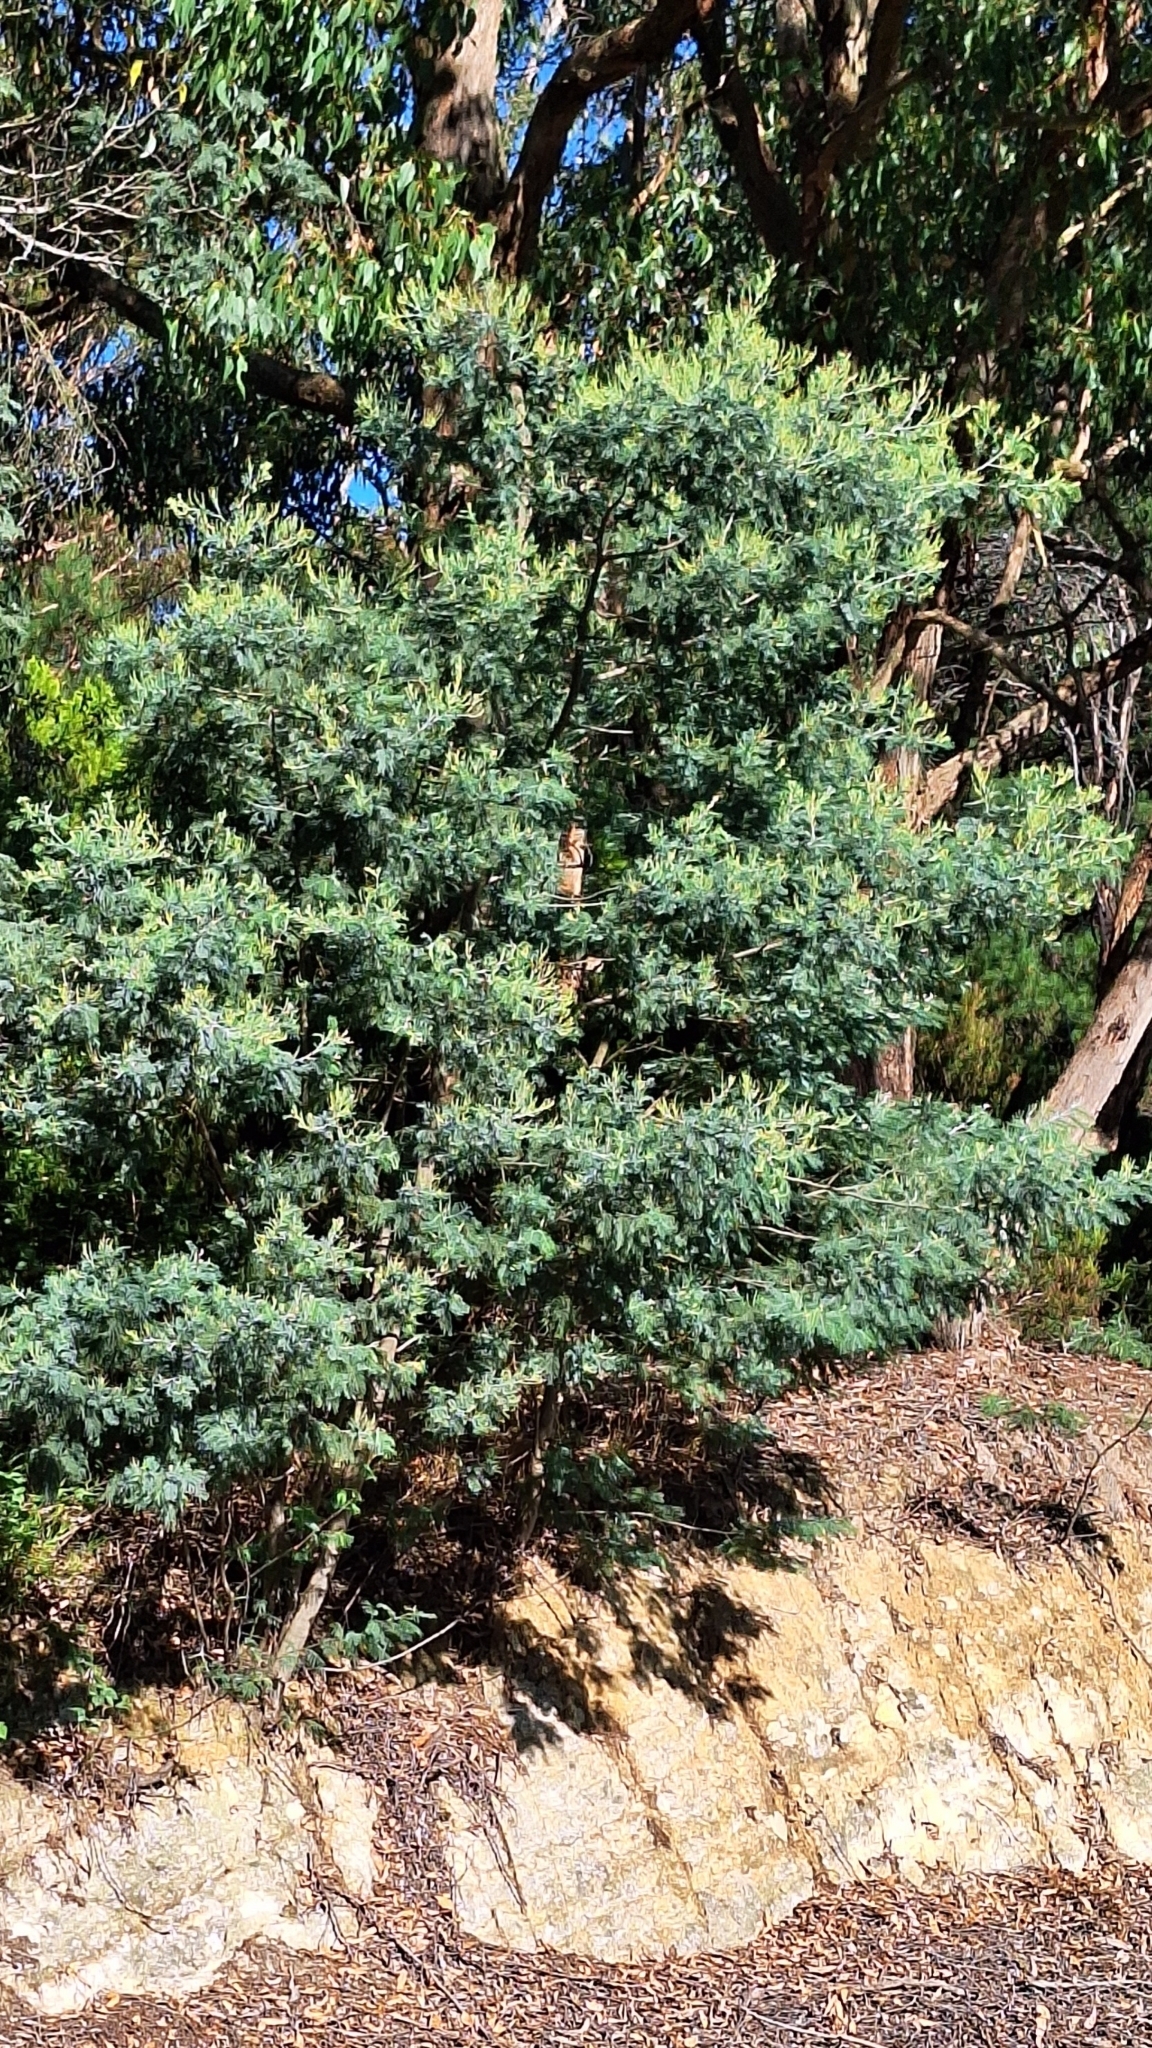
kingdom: Plantae
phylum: Tracheophyta
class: Magnoliopsida
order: Fabales
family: Fabaceae
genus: Acacia
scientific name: Acacia dealbata
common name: Silver wattle
